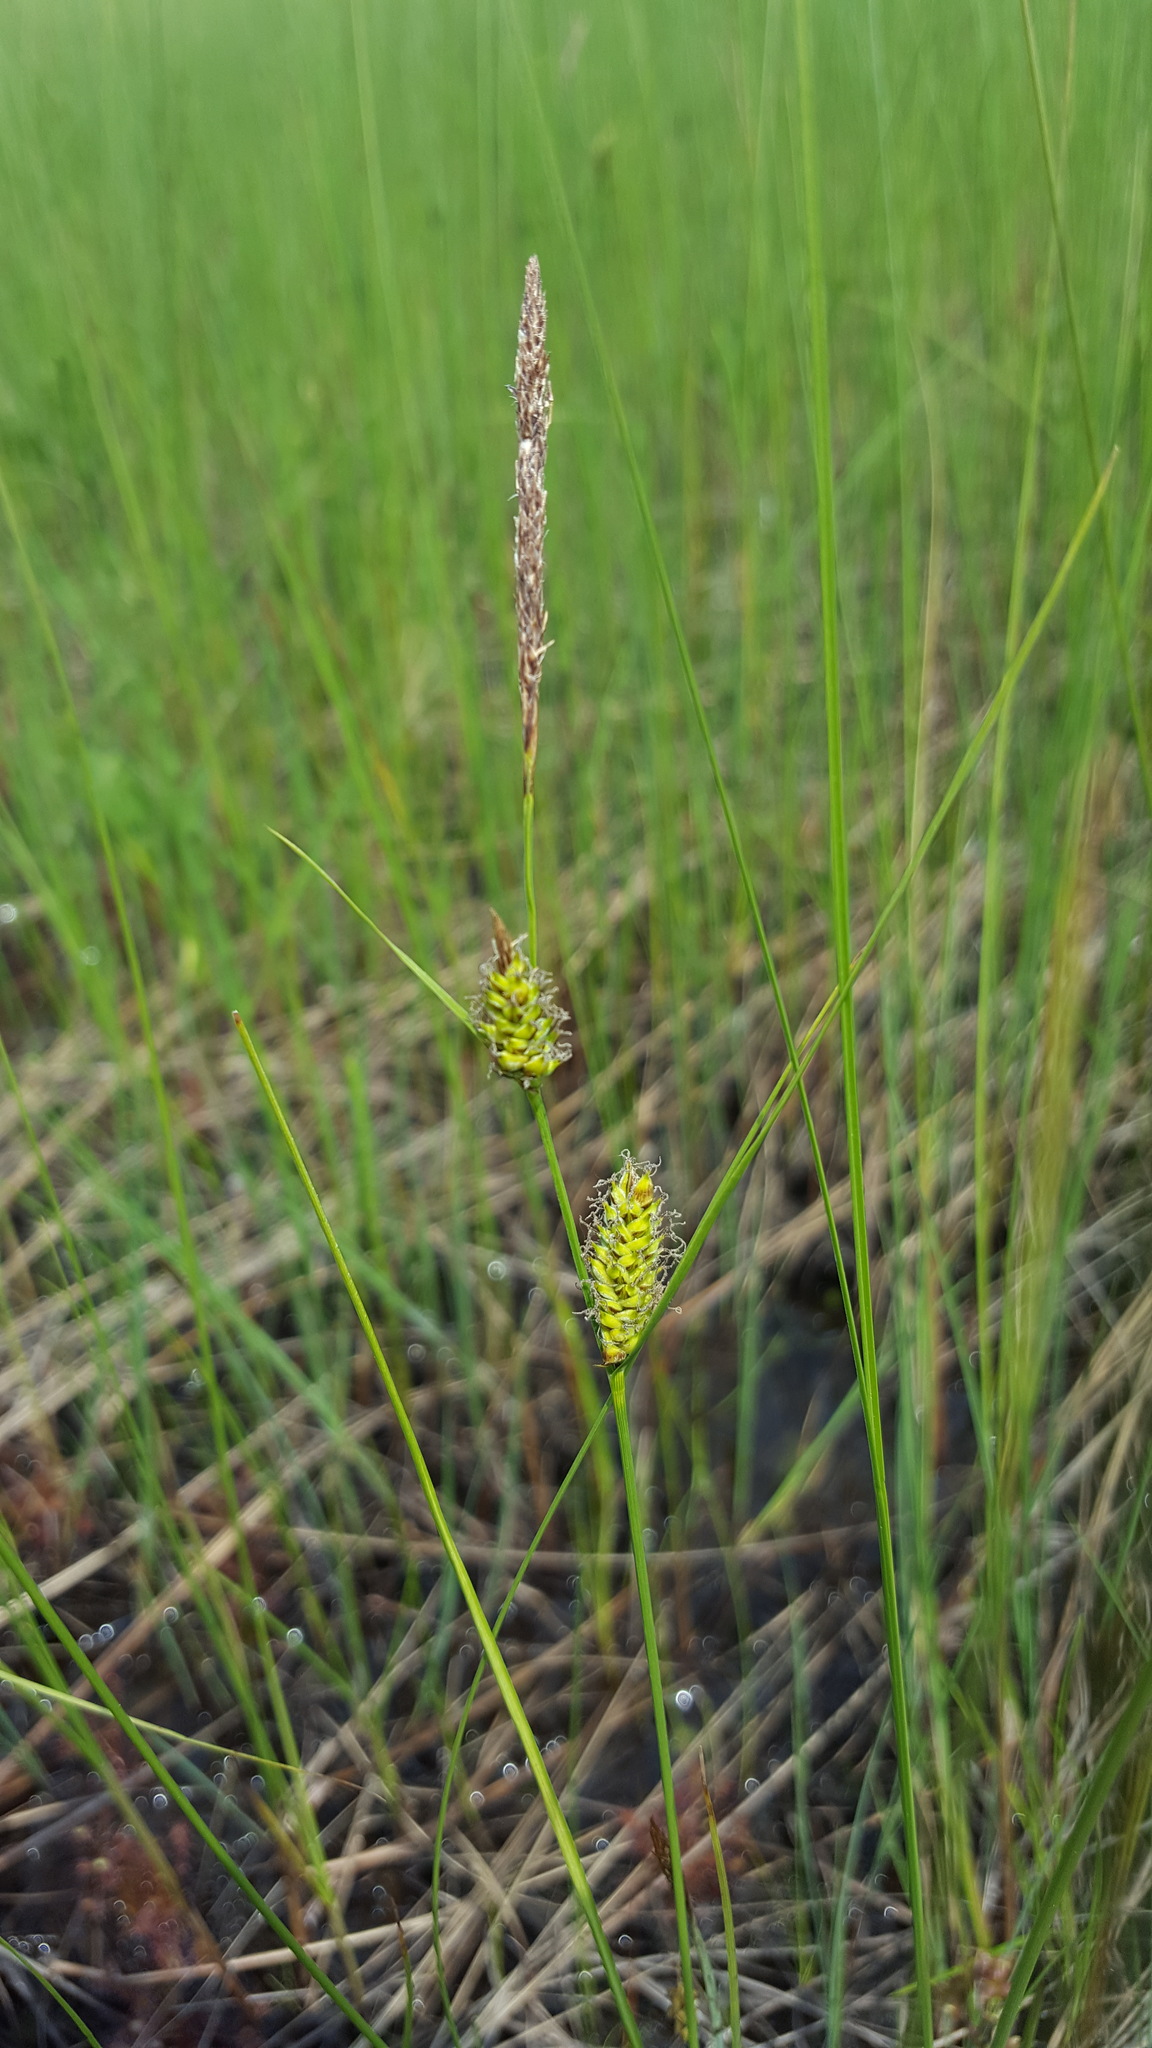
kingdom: Plantae
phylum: Tracheophyta
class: Liliopsida
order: Poales
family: Cyperaceae
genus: Carex
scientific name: Carex lasiocarpa
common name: Slender sedge
